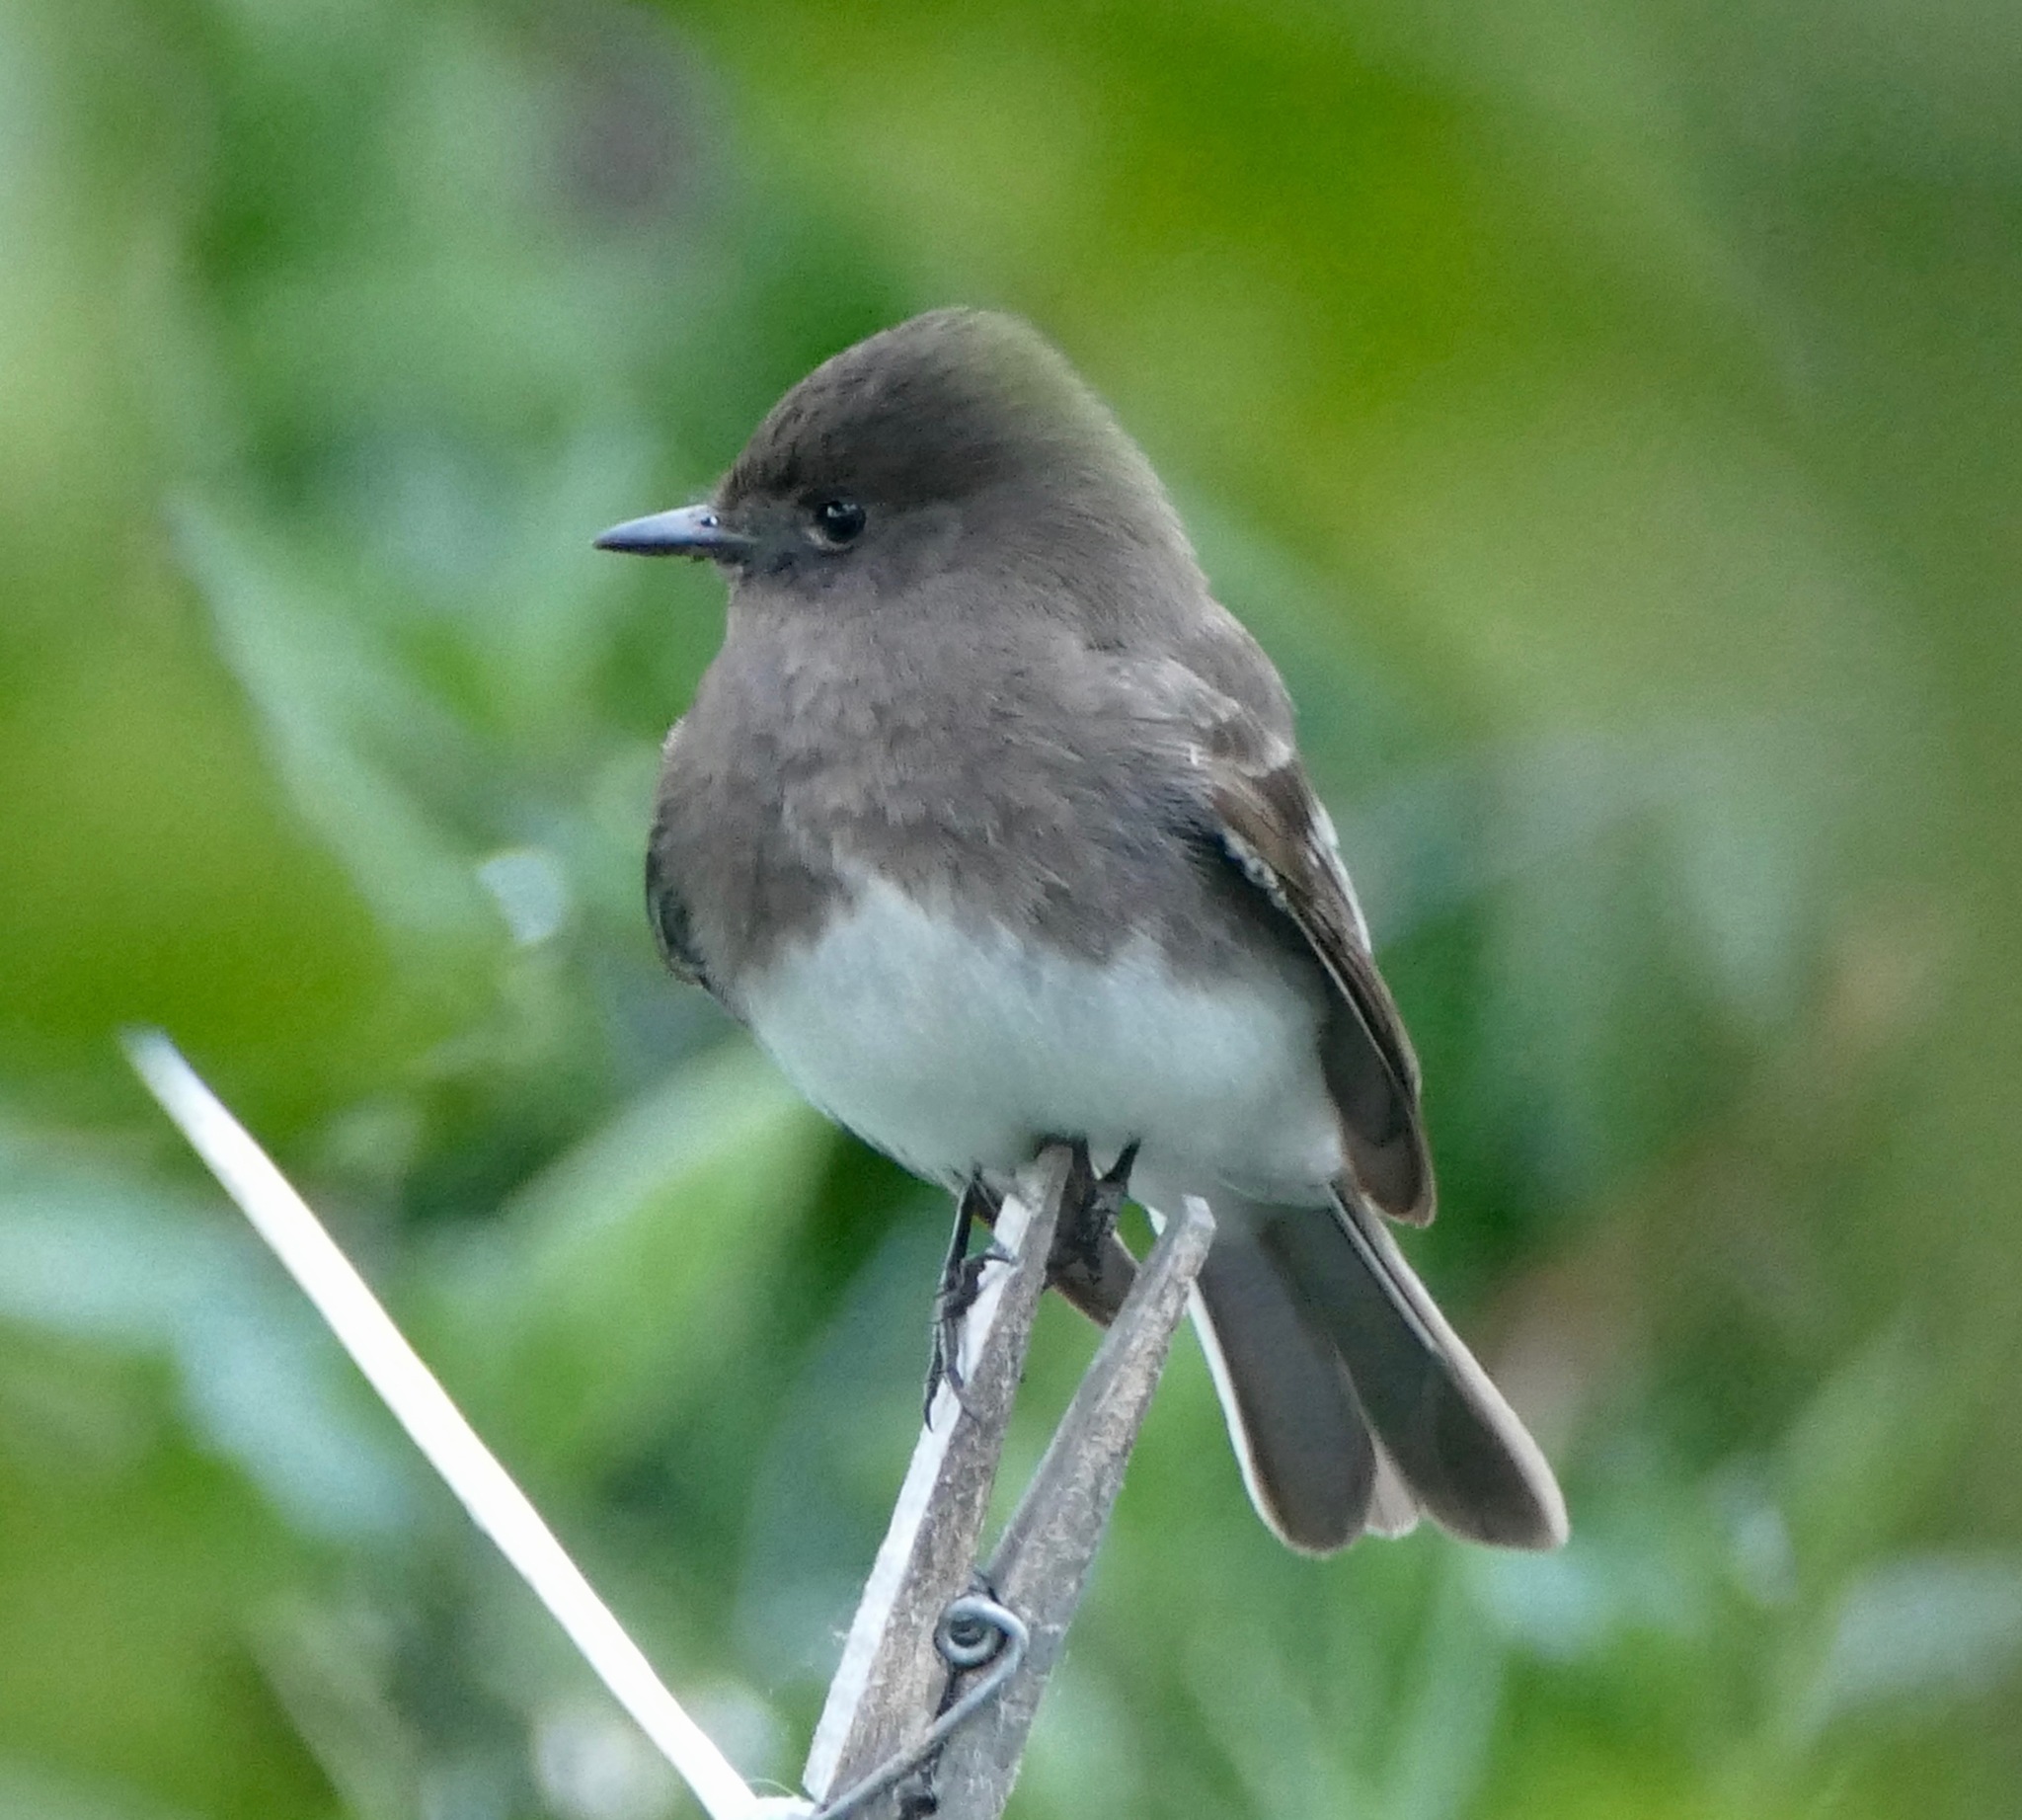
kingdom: Animalia
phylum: Chordata
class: Aves
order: Passeriformes
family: Tyrannidae
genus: Sayornis
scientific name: Sayornis nigricans
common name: Black phoebe
